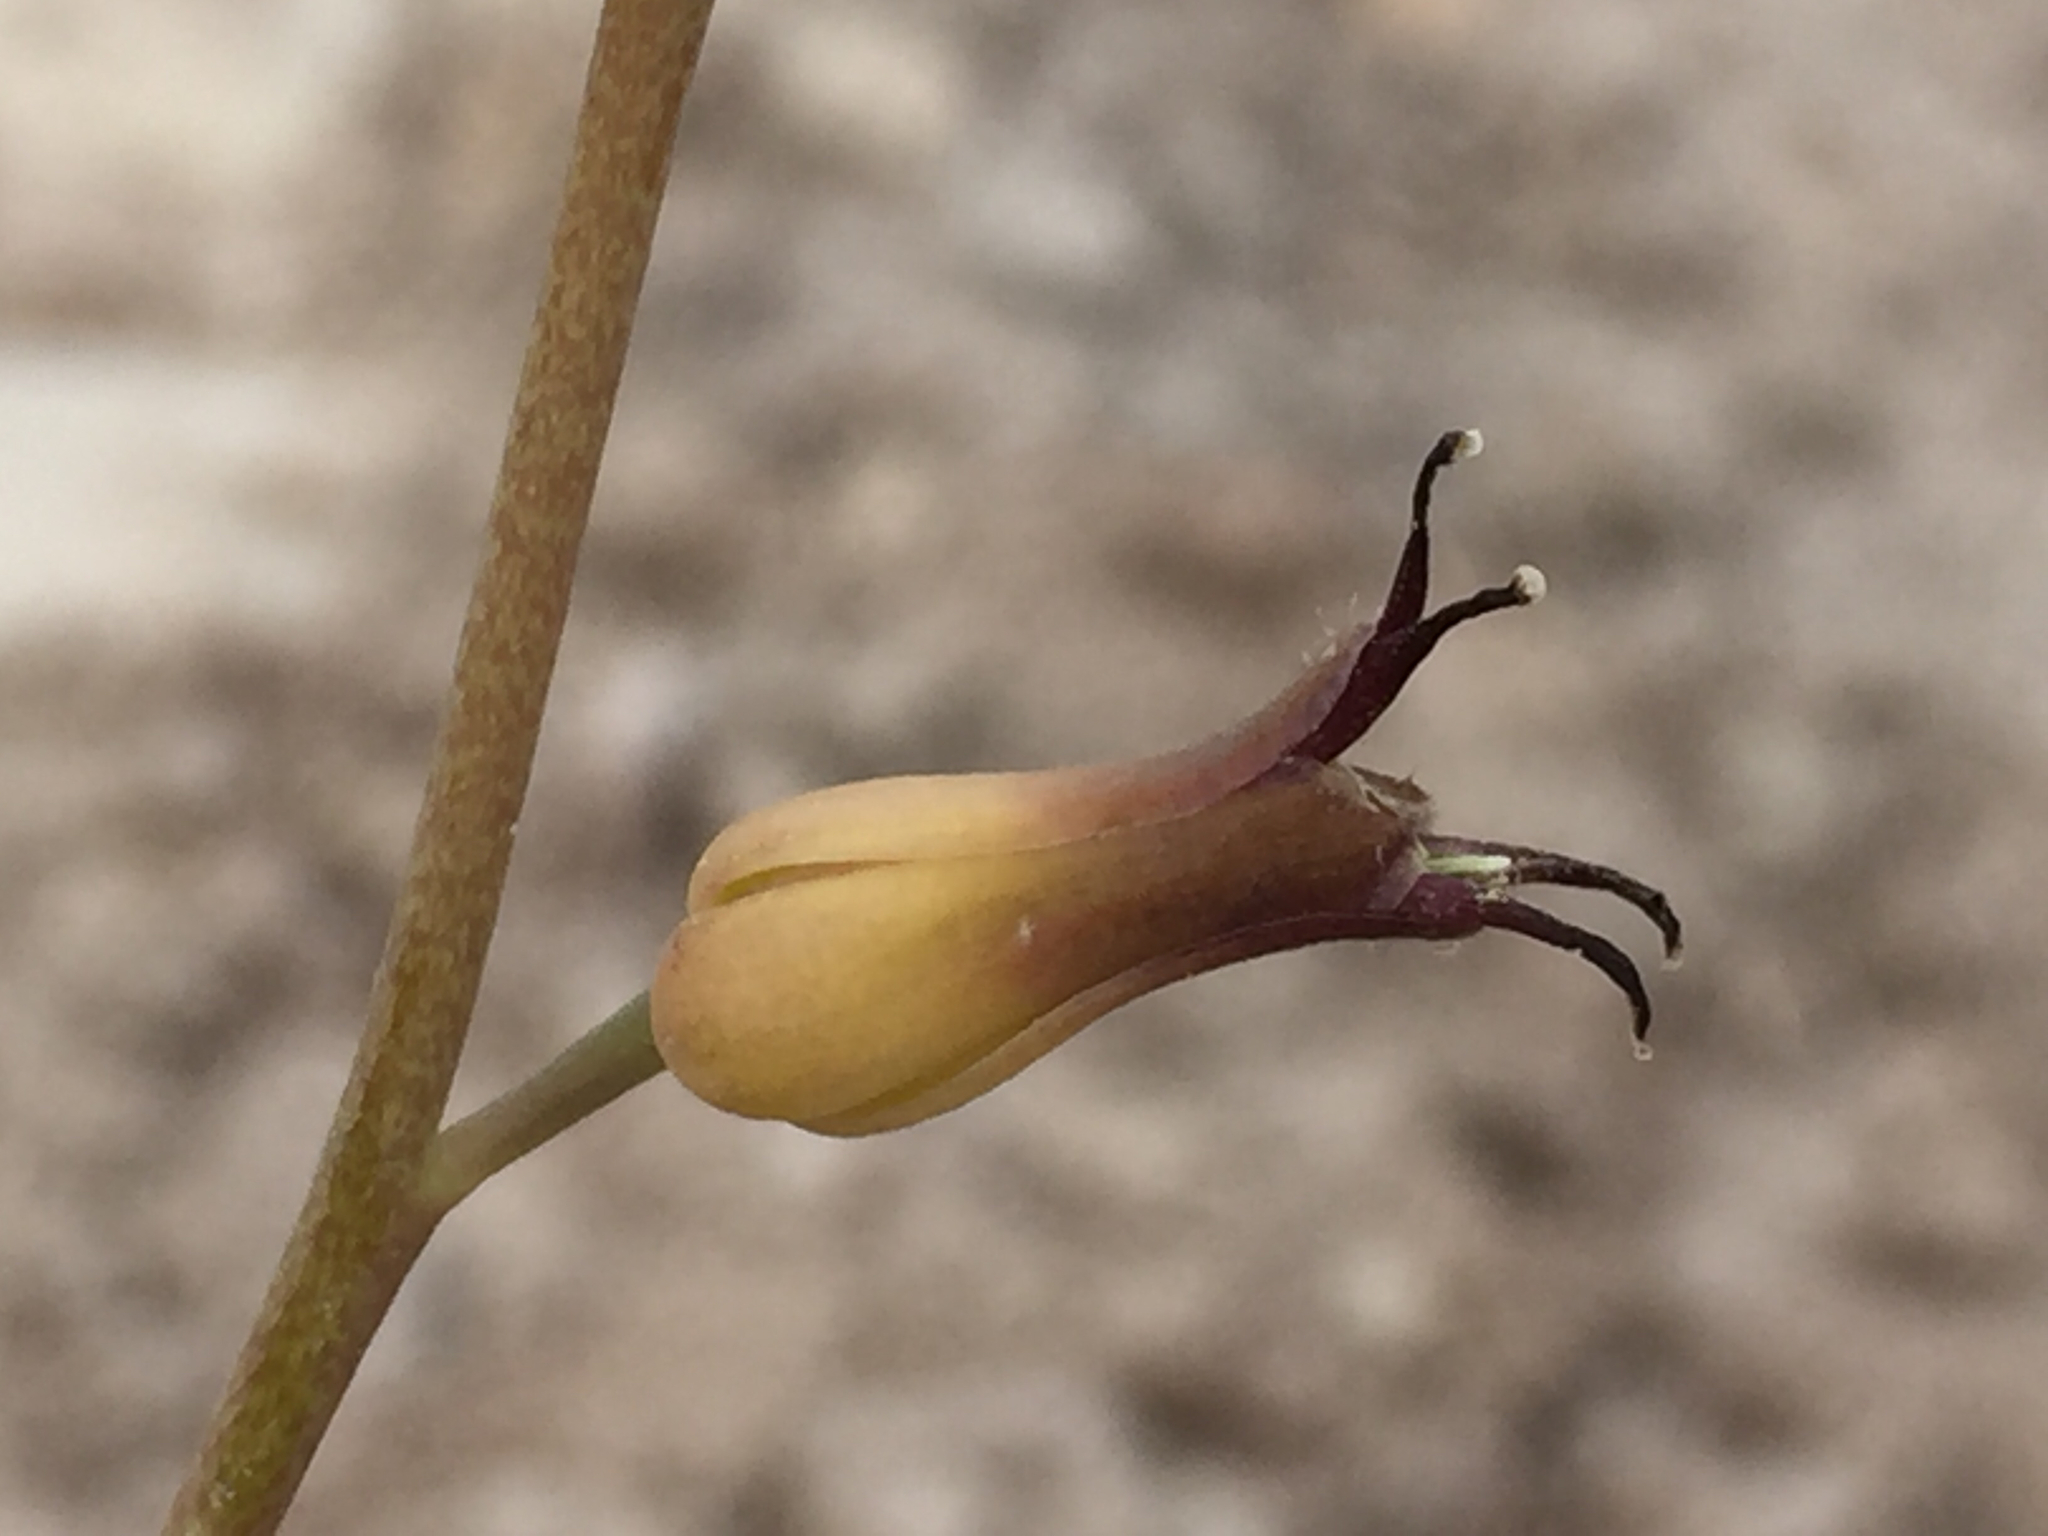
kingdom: Plantae
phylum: Tracheophyta
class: Magnoliopsida
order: Brassicales
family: Brassicaceae
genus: Streptanthus
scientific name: Streptanthus cordatus
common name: Heart-leaf jewel-flower
